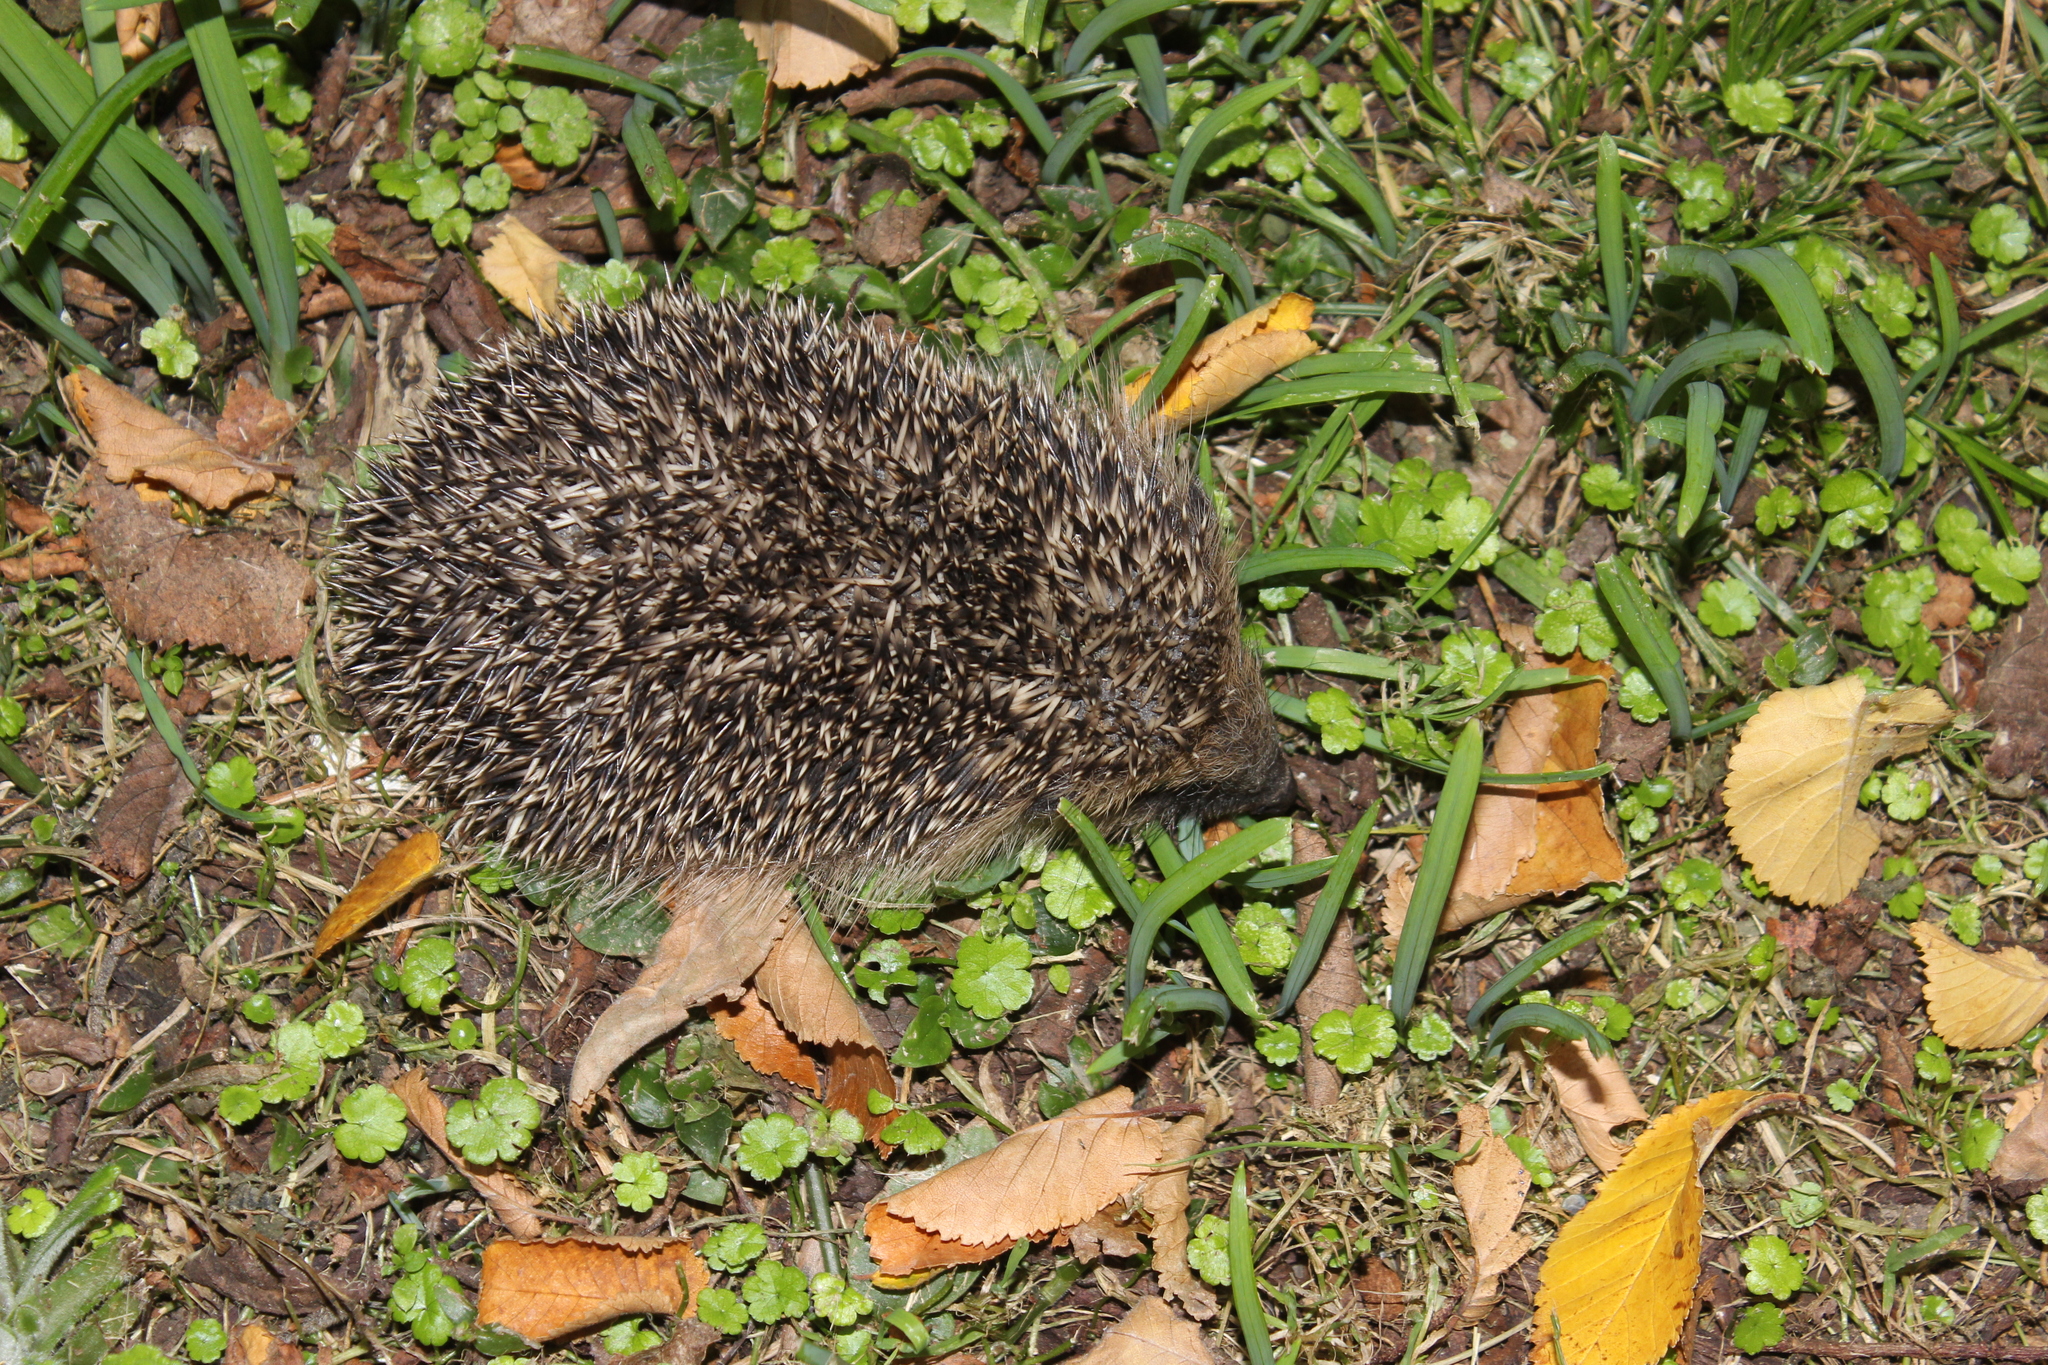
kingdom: Animalia
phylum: Chordata
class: Mammalia
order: Erinaceomorpha
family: Erinaceidae
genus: Erinaceus
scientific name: Erinaceus europaeus
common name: West european hedgehog
